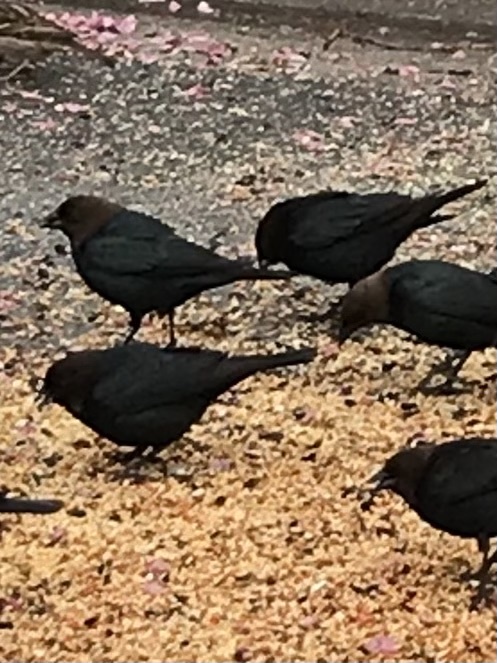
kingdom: Animalia
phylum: Chordata
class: Aves
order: Passeriformes
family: Icteridae
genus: Molothrus
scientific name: Molothrus ater
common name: Brown-headed cowbird
